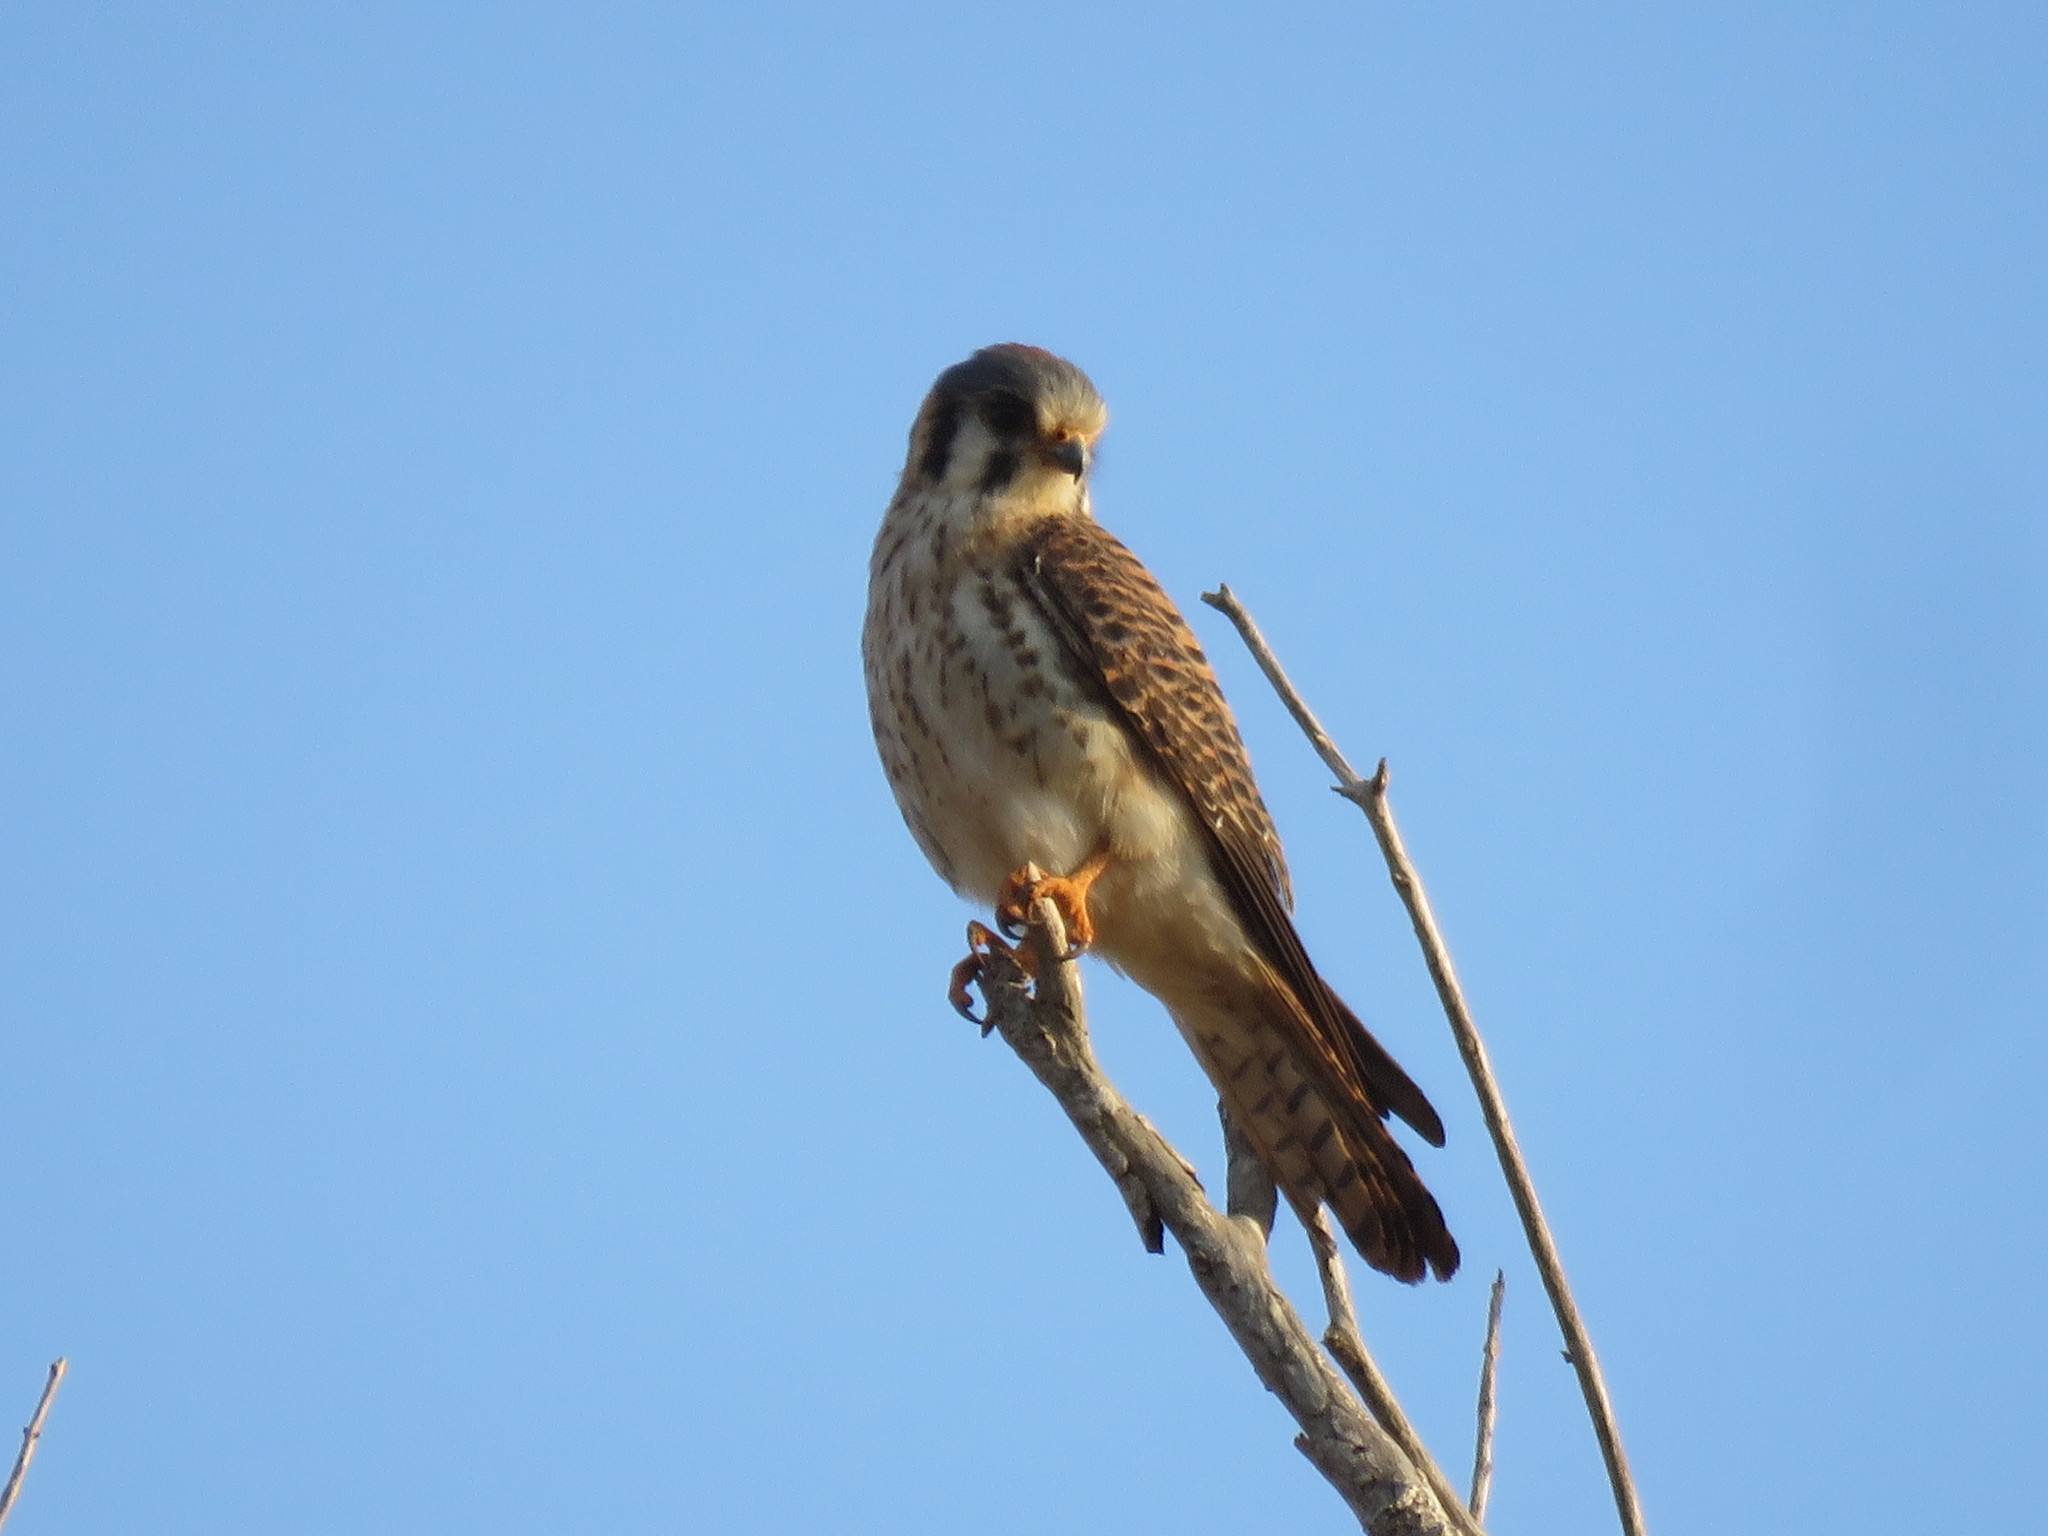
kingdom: Animalia
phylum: Chordata
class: Aves
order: Falconiformes
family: Falconidae
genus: Falco
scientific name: Falco sparverius
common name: American kestrel
